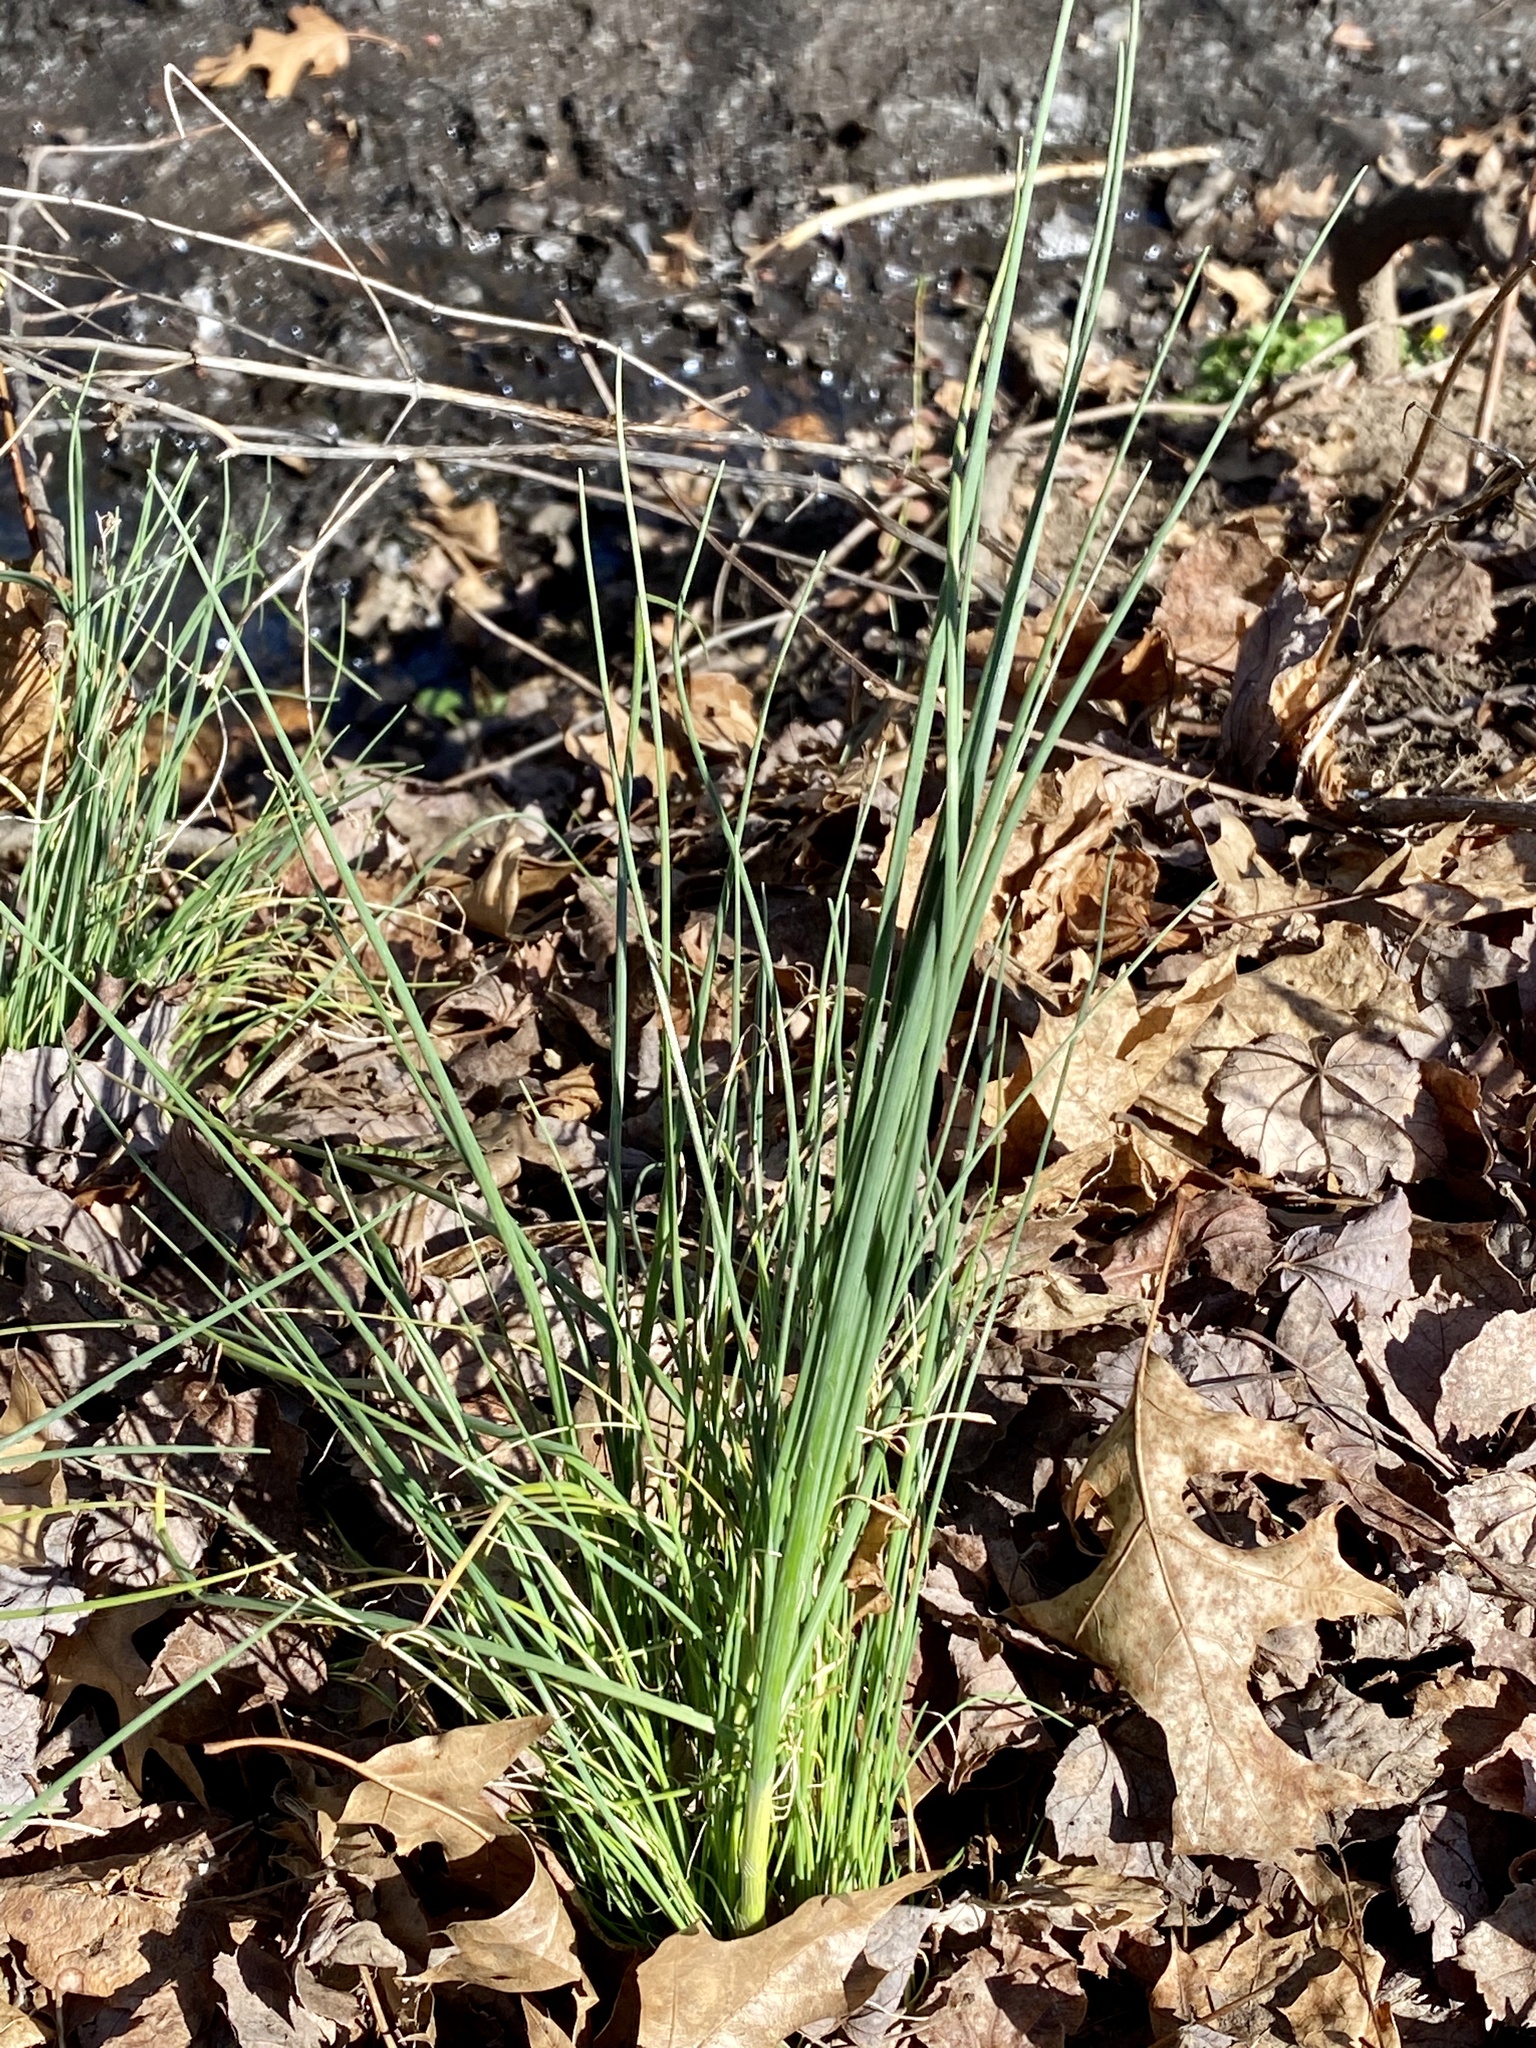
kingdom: Plantae
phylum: Tracheophyta
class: Liliopsida
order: Asparagales
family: Amaryllidaceae
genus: Allium
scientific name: Allium vineale
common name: Crow garlic
